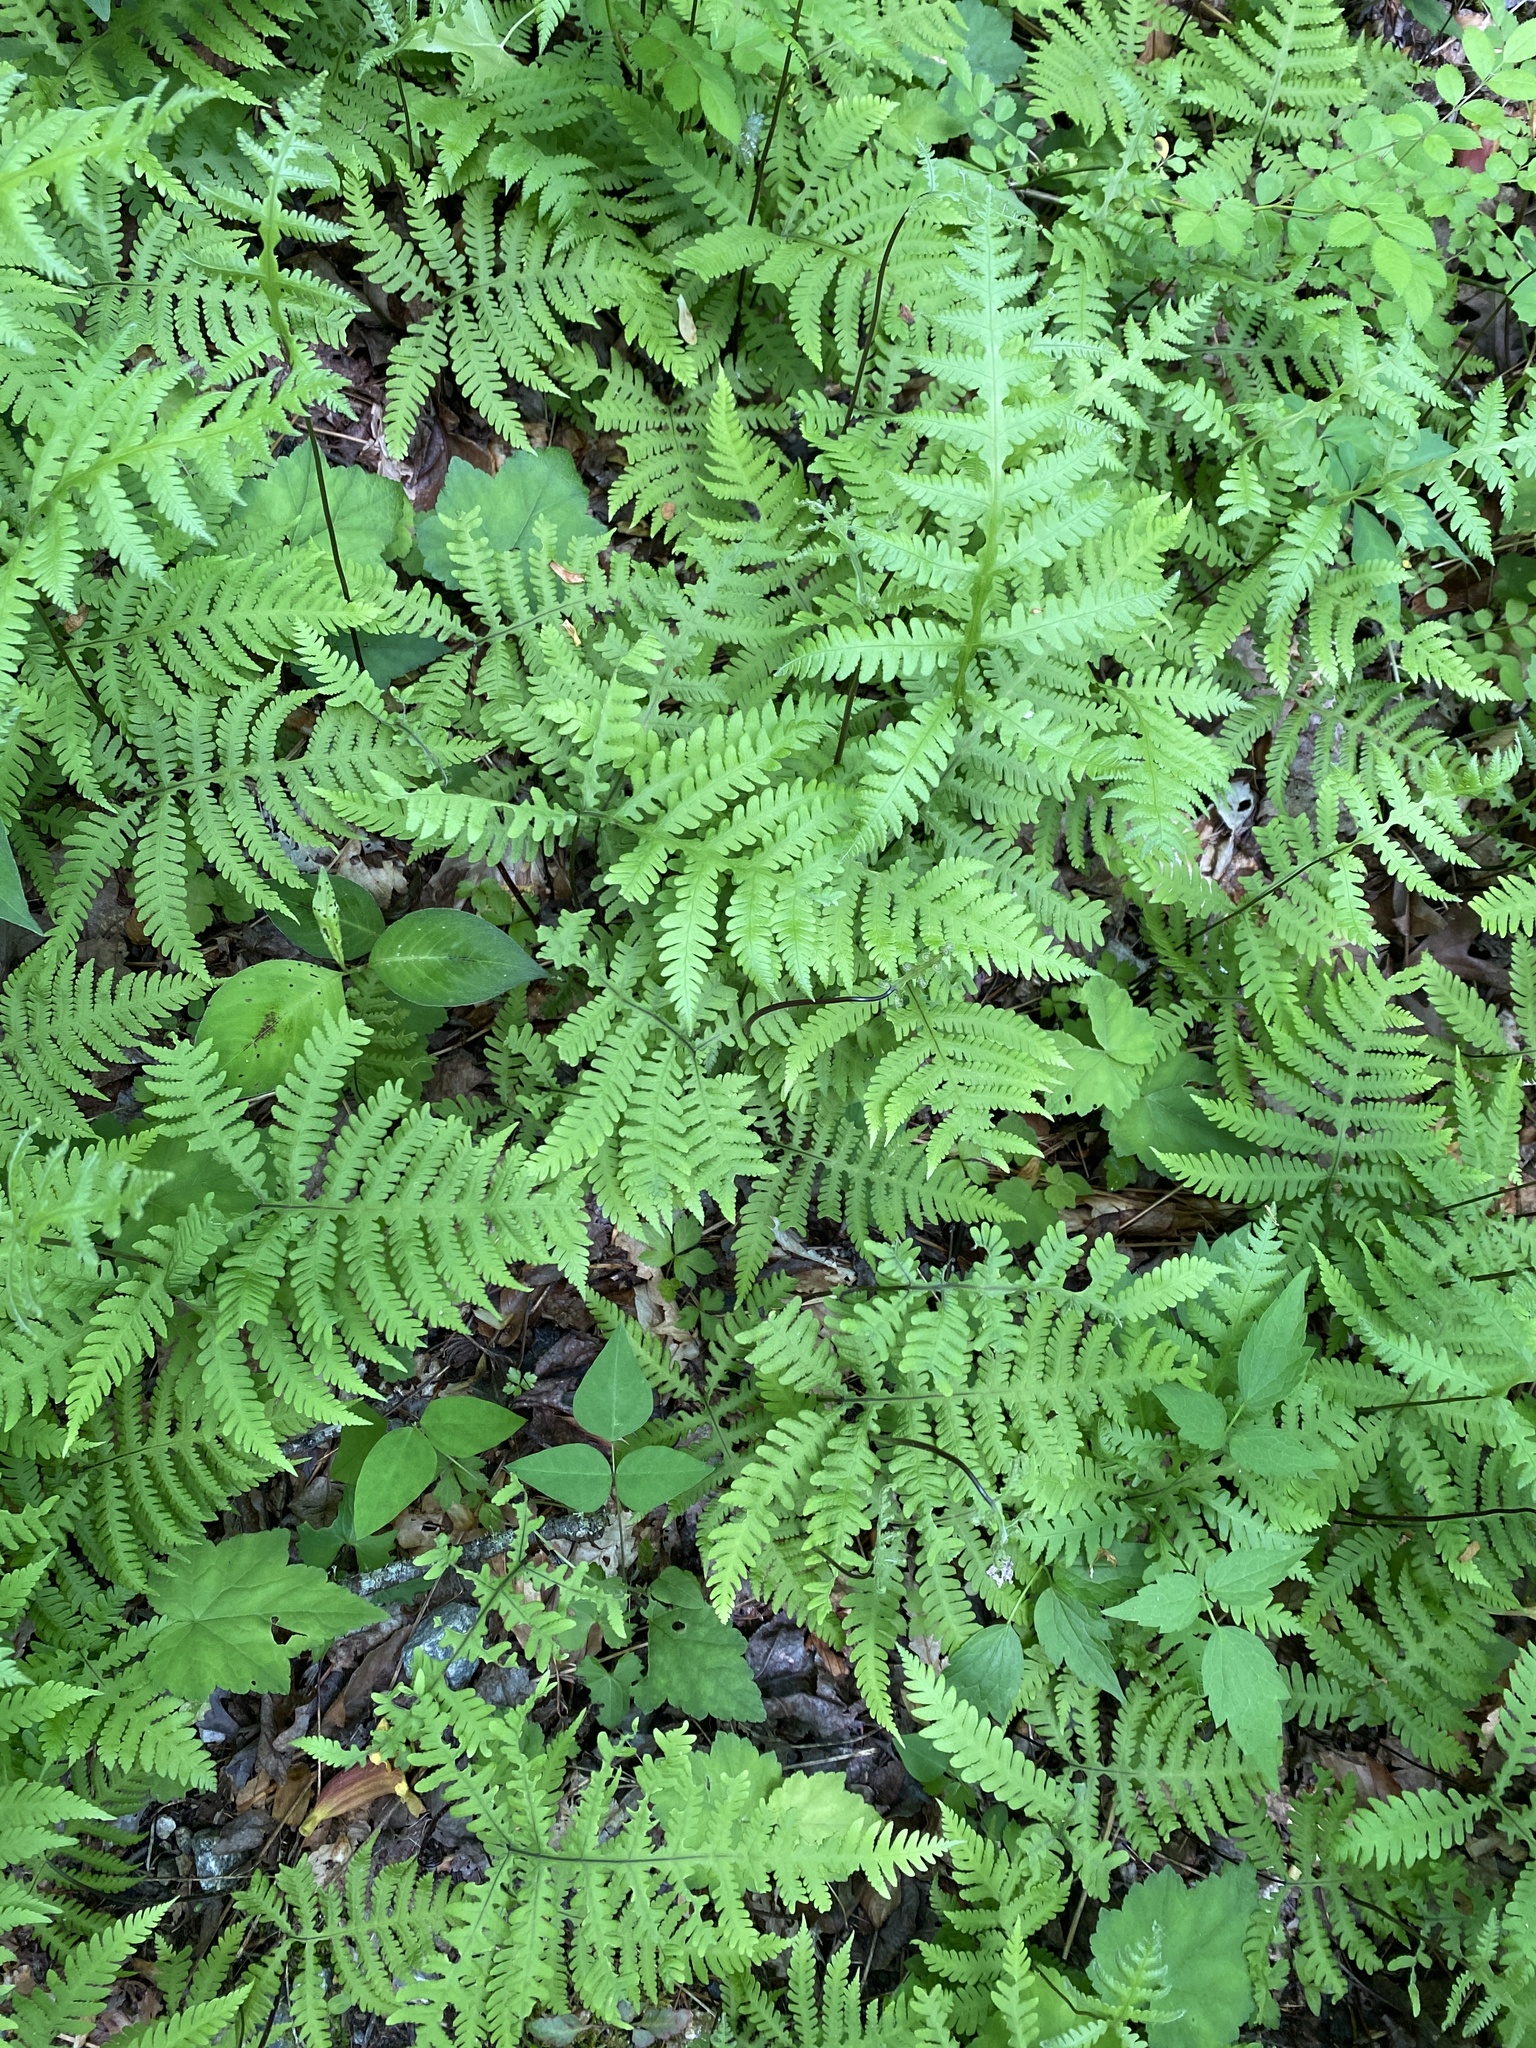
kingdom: Plantae
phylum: Tracheophyta
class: Polypodiopsida
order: Polypodiales
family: Thelypteridaceae
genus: Phegopteris
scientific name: Phegopteris hexagonoptera
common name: Broad beech fern
